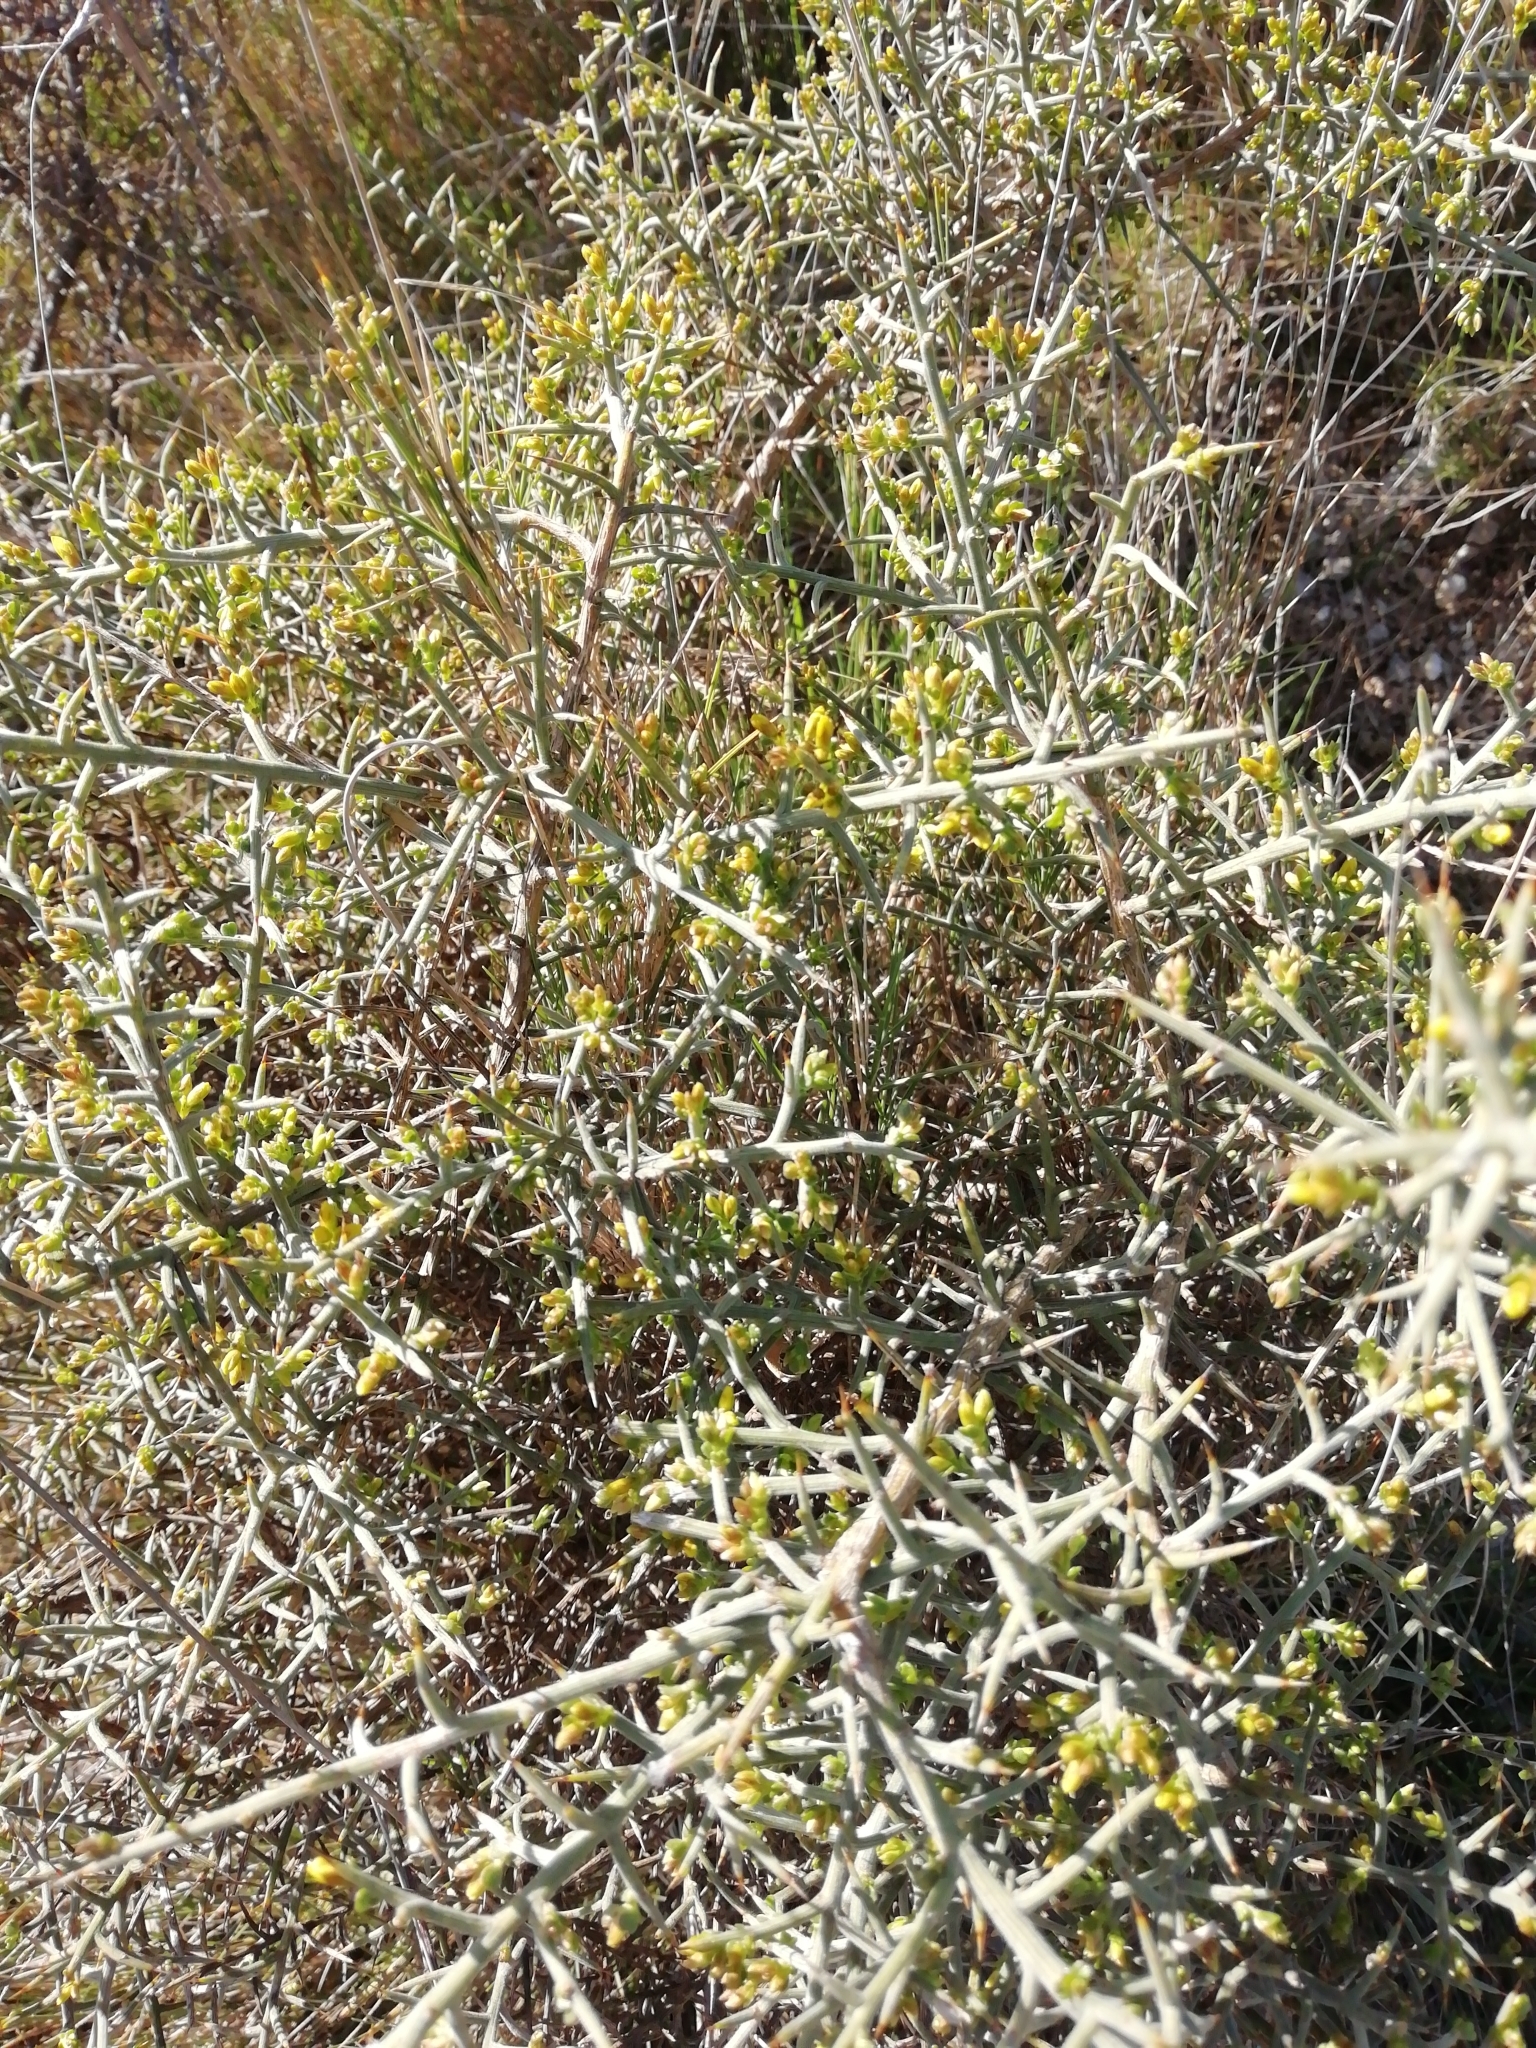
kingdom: Plantae
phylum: Tracheophyta
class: Magnoliopsida
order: Fabales
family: Fabaceae
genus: Genista
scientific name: Genista scorpius
